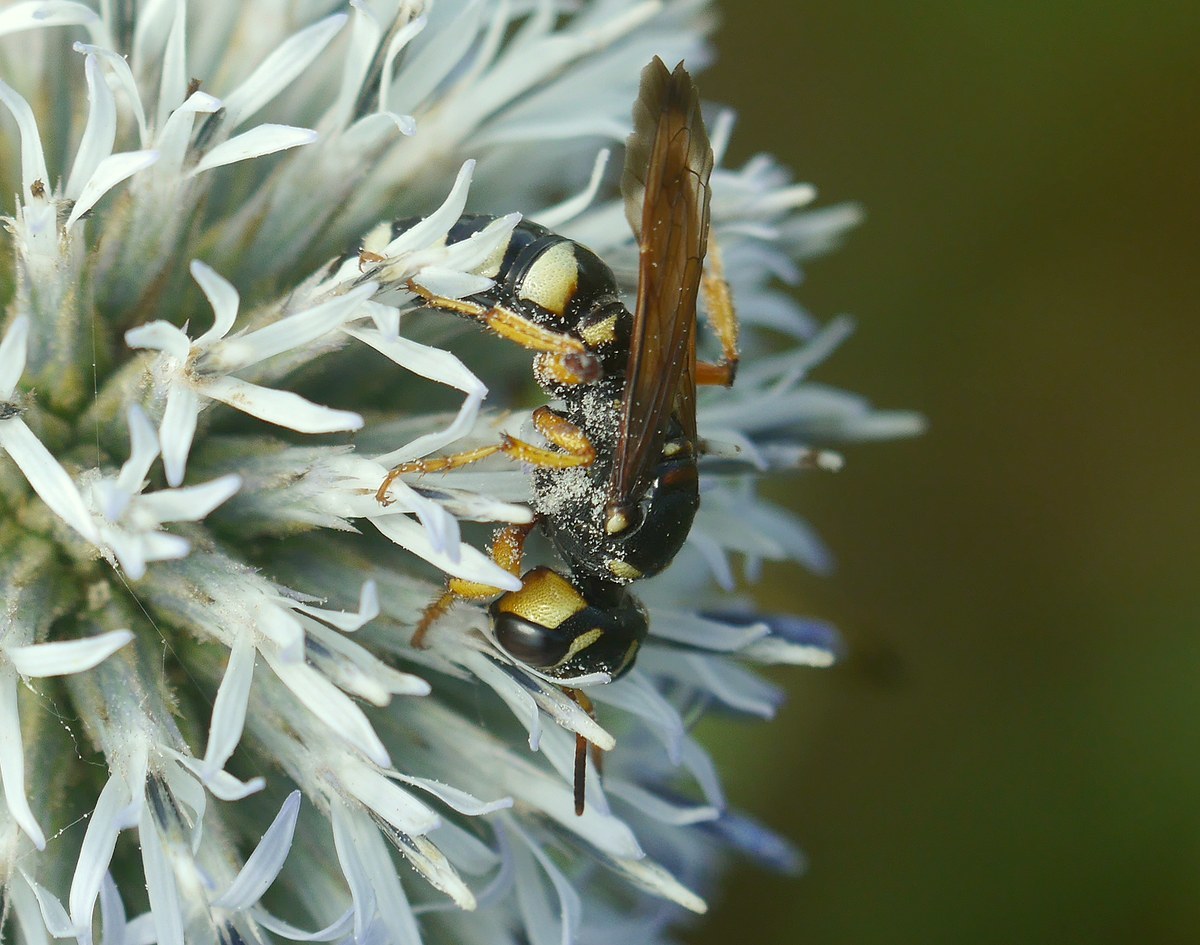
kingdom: Animalia
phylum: Arthropoda
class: Insecta
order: Hymenoptera
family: Crabronidae
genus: Cerceris
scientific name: Cerceris tuberculata
